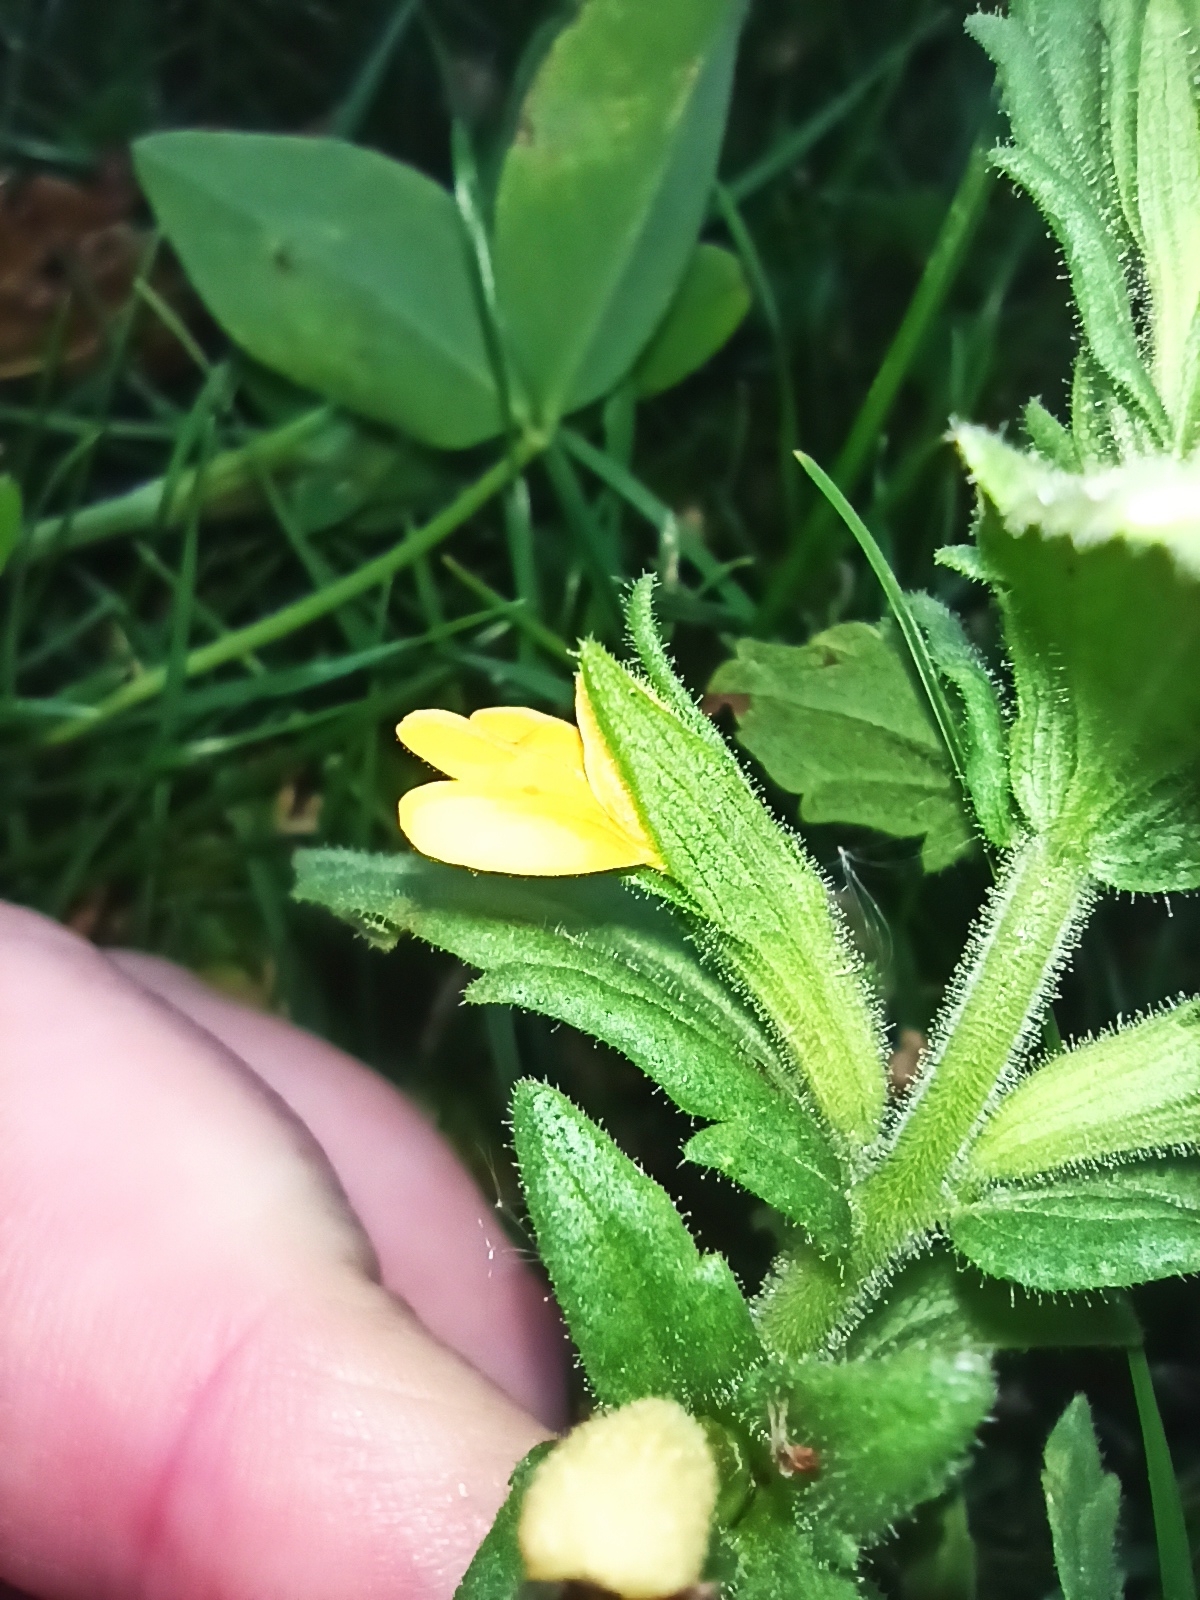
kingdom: Plantae
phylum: Tracheophyta
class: Magnoliopsida
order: Lamiales
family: Orobanchaceae
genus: Bellardia
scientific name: Bellardia viscosa
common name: Sticky parentucellia
